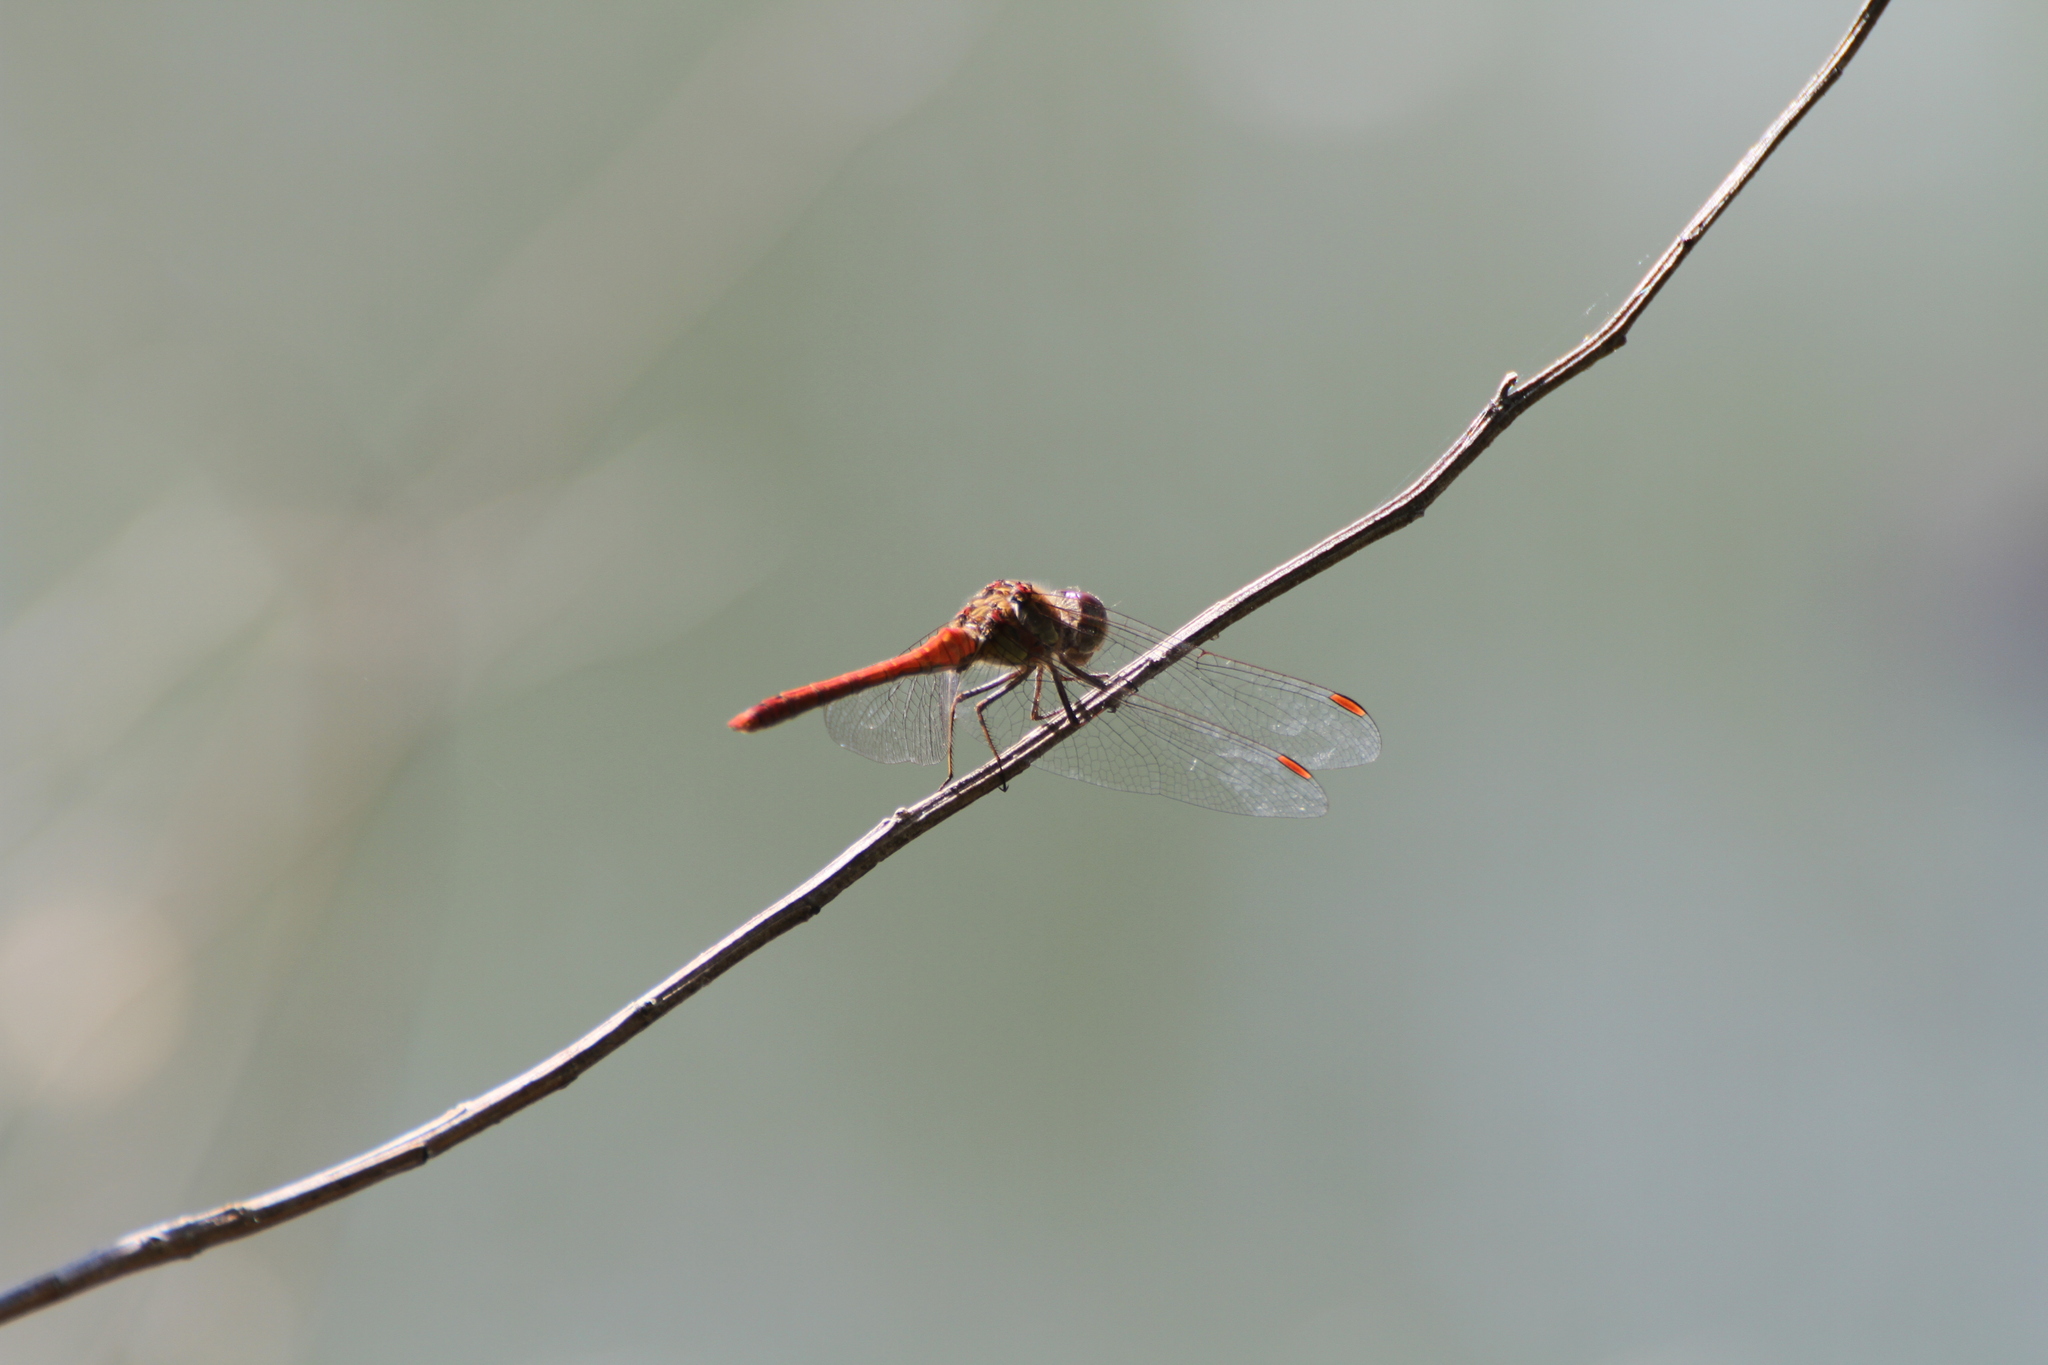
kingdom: Animalia
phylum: Arthropoda
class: Insecta
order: Odonata
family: Libellulidae
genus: Sympetrum
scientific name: Sympetrum striolatum
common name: Common darter
